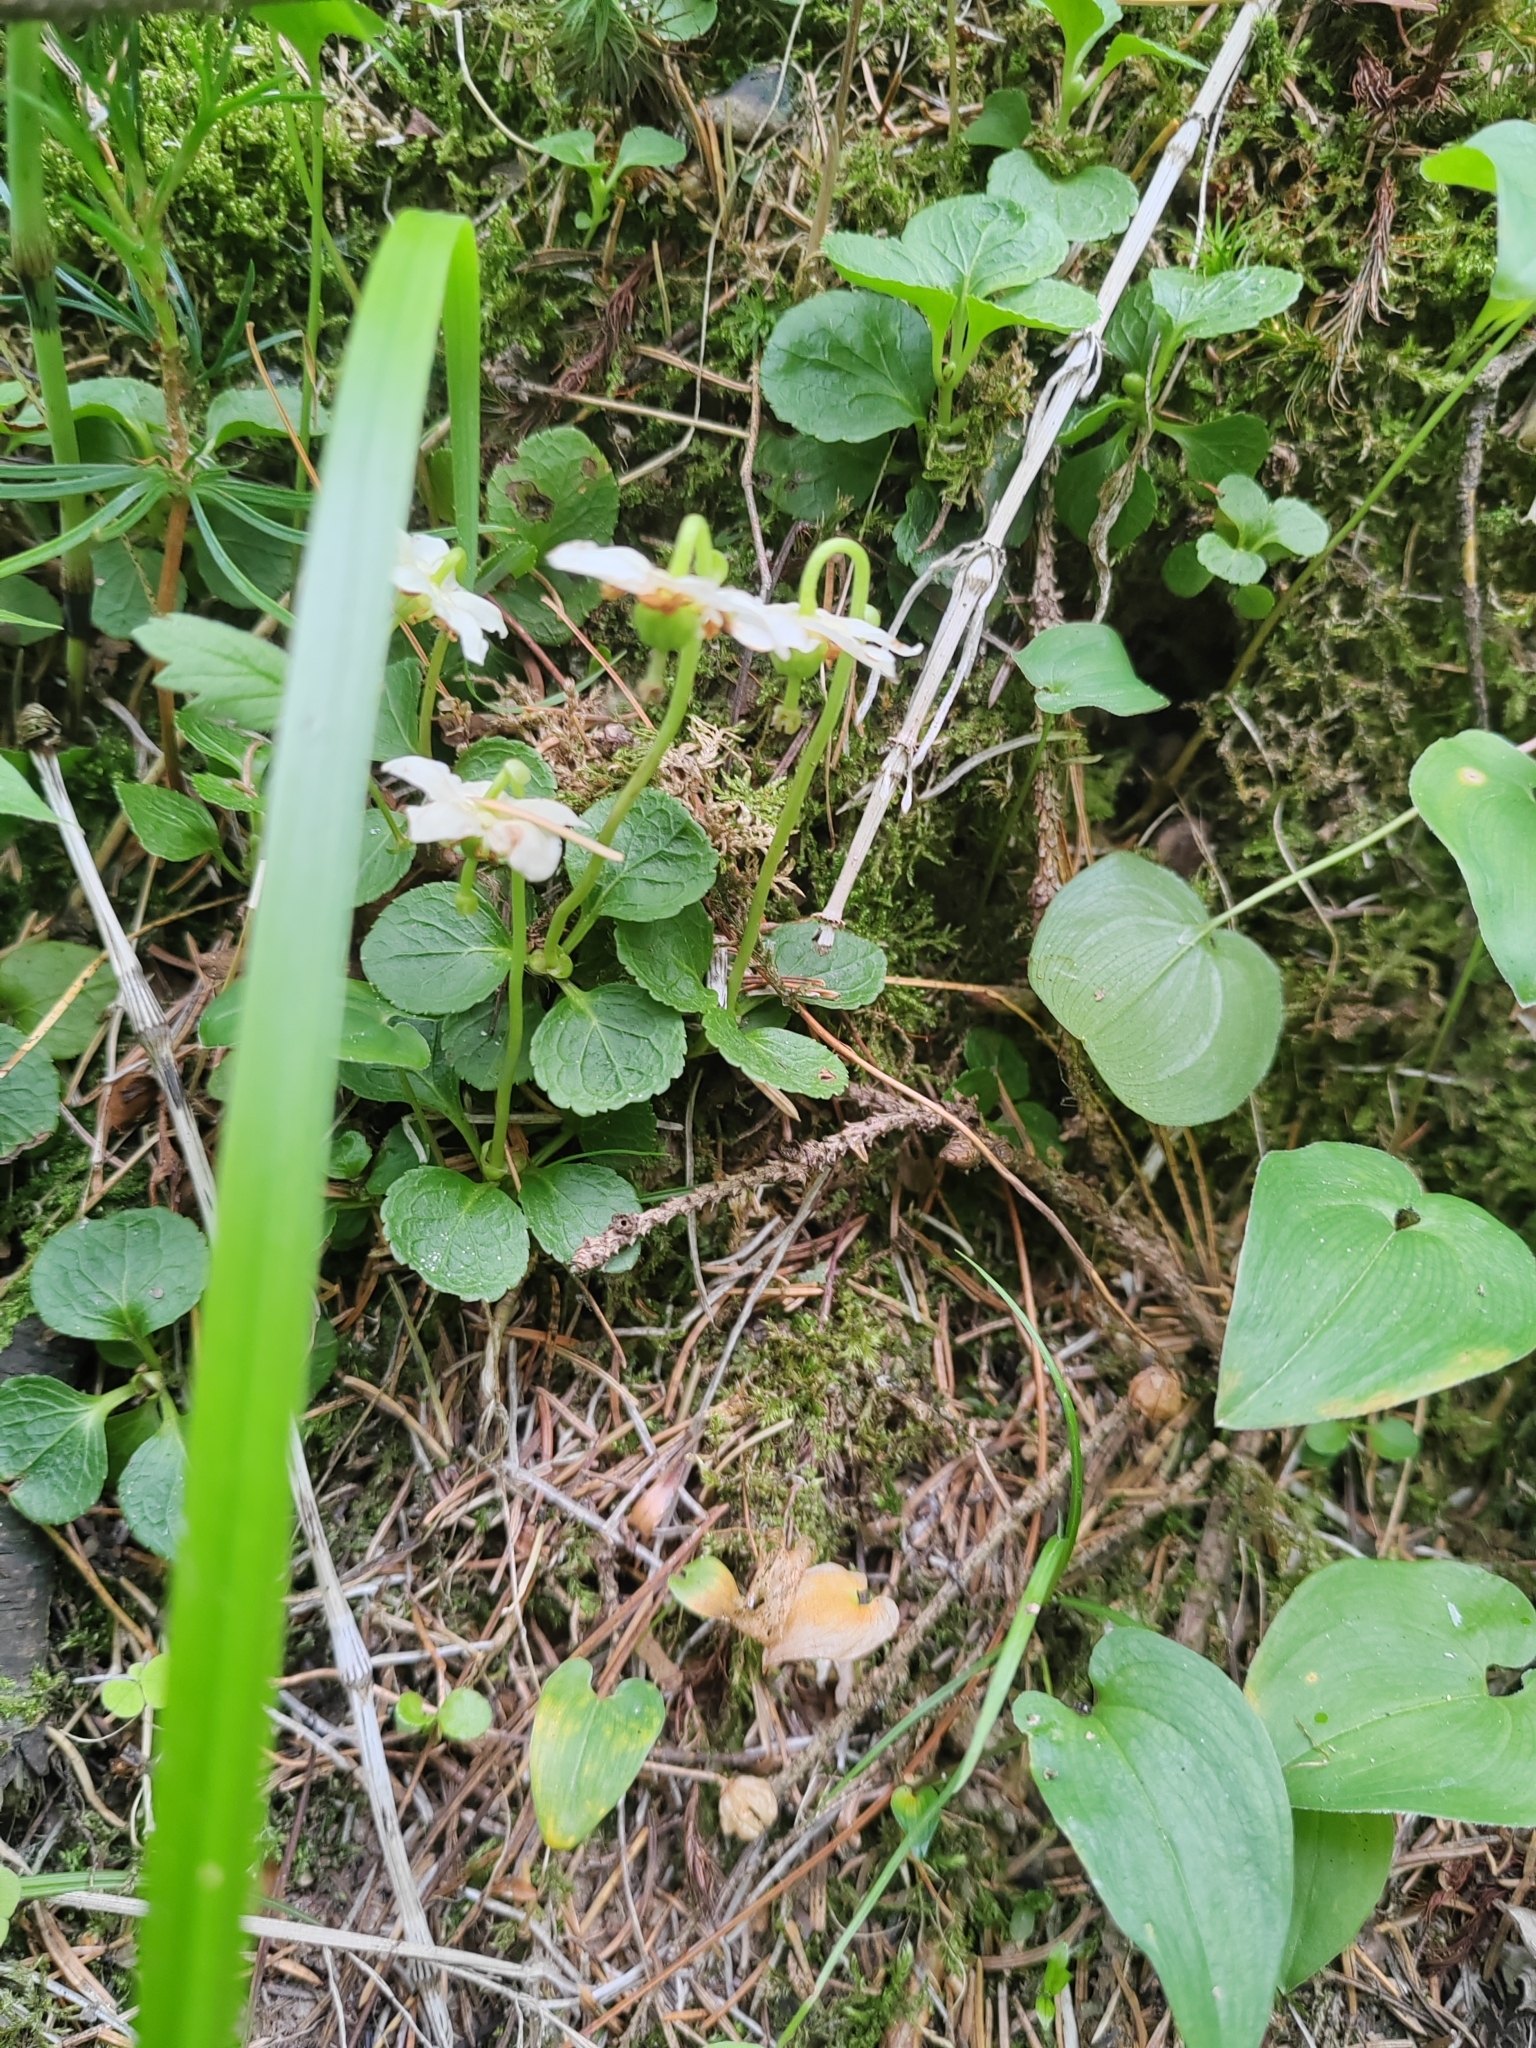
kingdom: Plantae
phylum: Tracheophyta
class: Magnoliopsida
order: Ericales
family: Ericaceae
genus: Moneses
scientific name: Moneses uniflora
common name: One-flowered wintergreen
